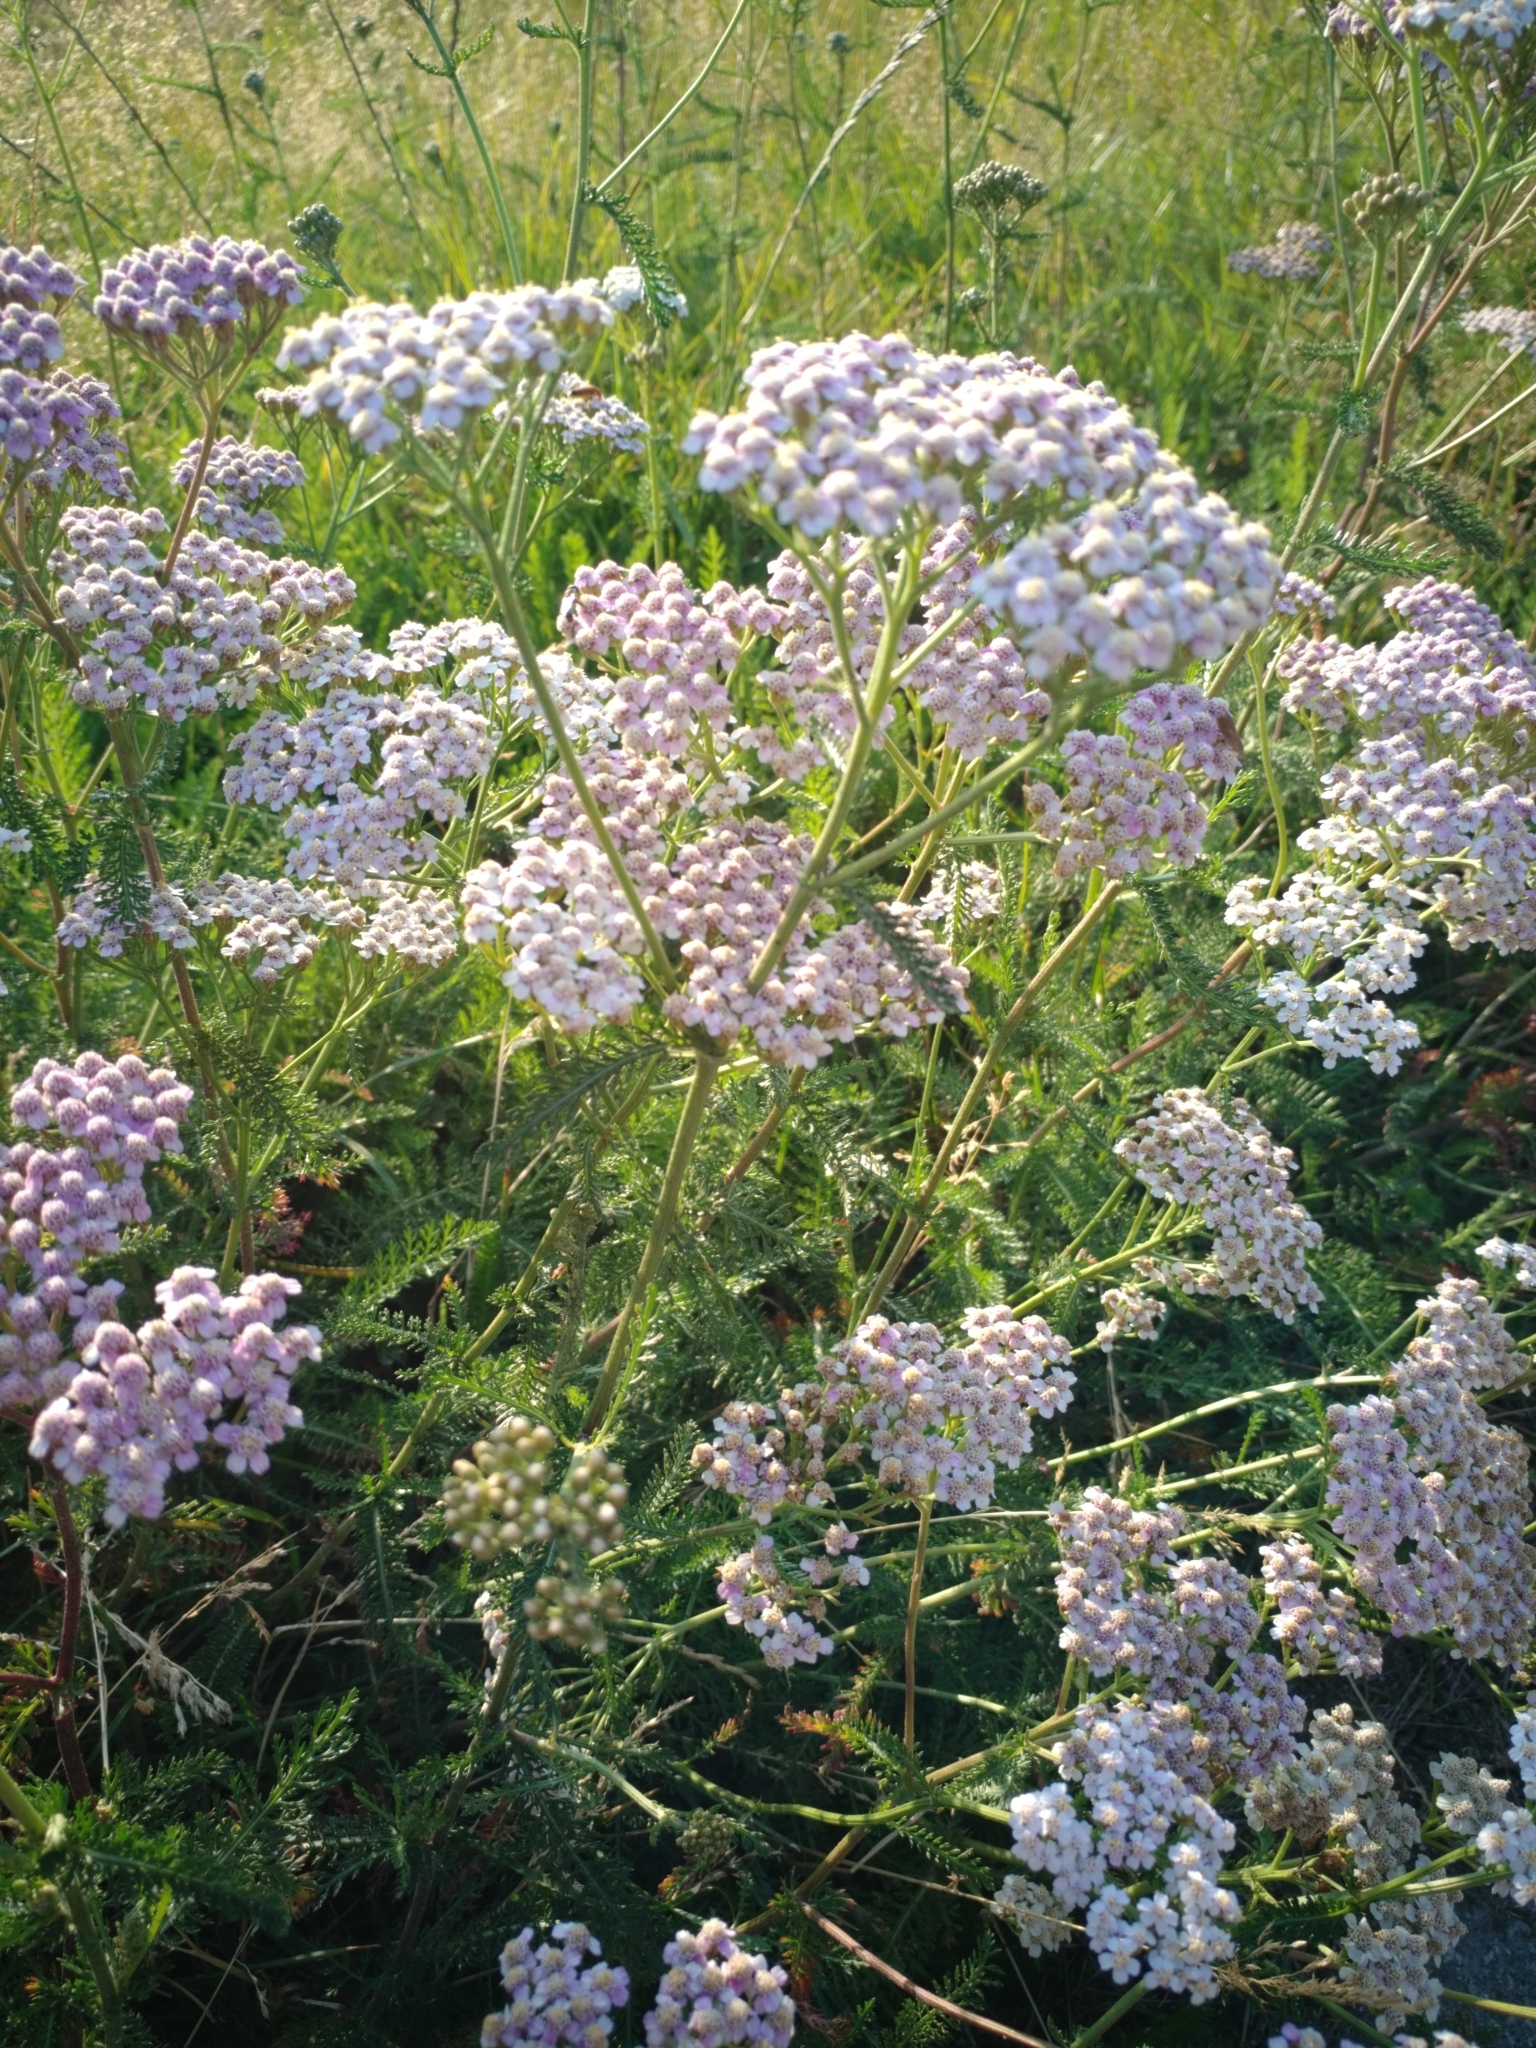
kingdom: Plantae
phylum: Tracheophyta
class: Magnoliopsida
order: Asterales
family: Asteraceae
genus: Achillea
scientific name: Achillea millefolium
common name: Yarrow
